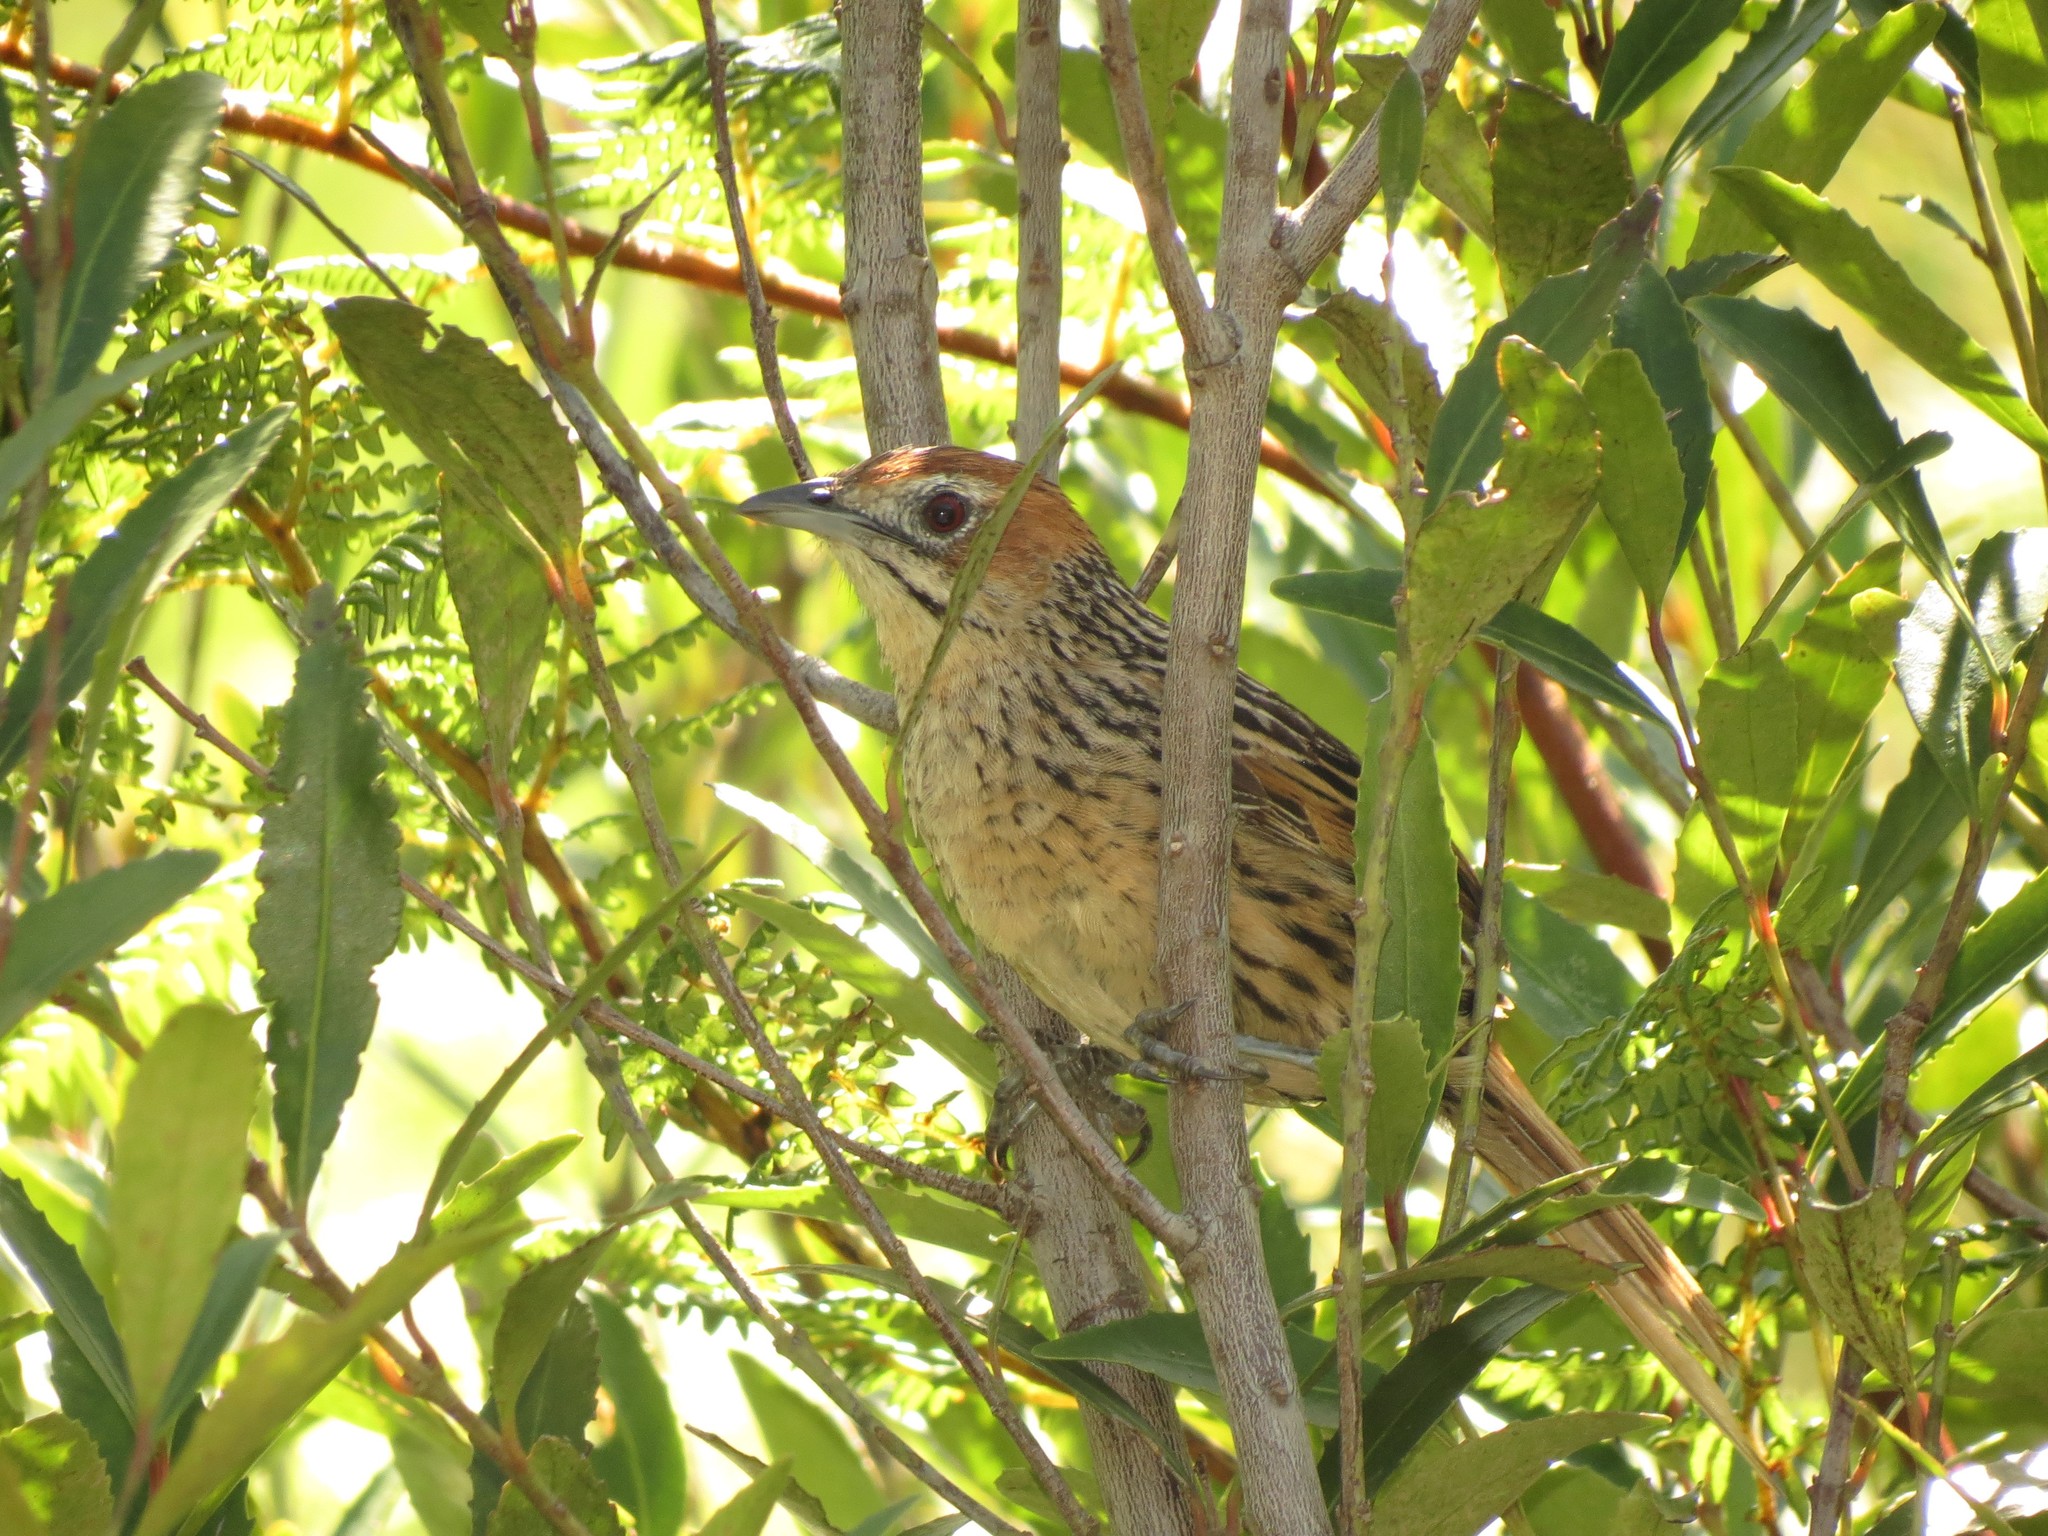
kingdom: Animalia
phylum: Chordata
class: Aves
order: Passeriformes
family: Macrosphenidae
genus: Sphenoeacus
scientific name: Sphenoeacus afer
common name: Cape grassbird
